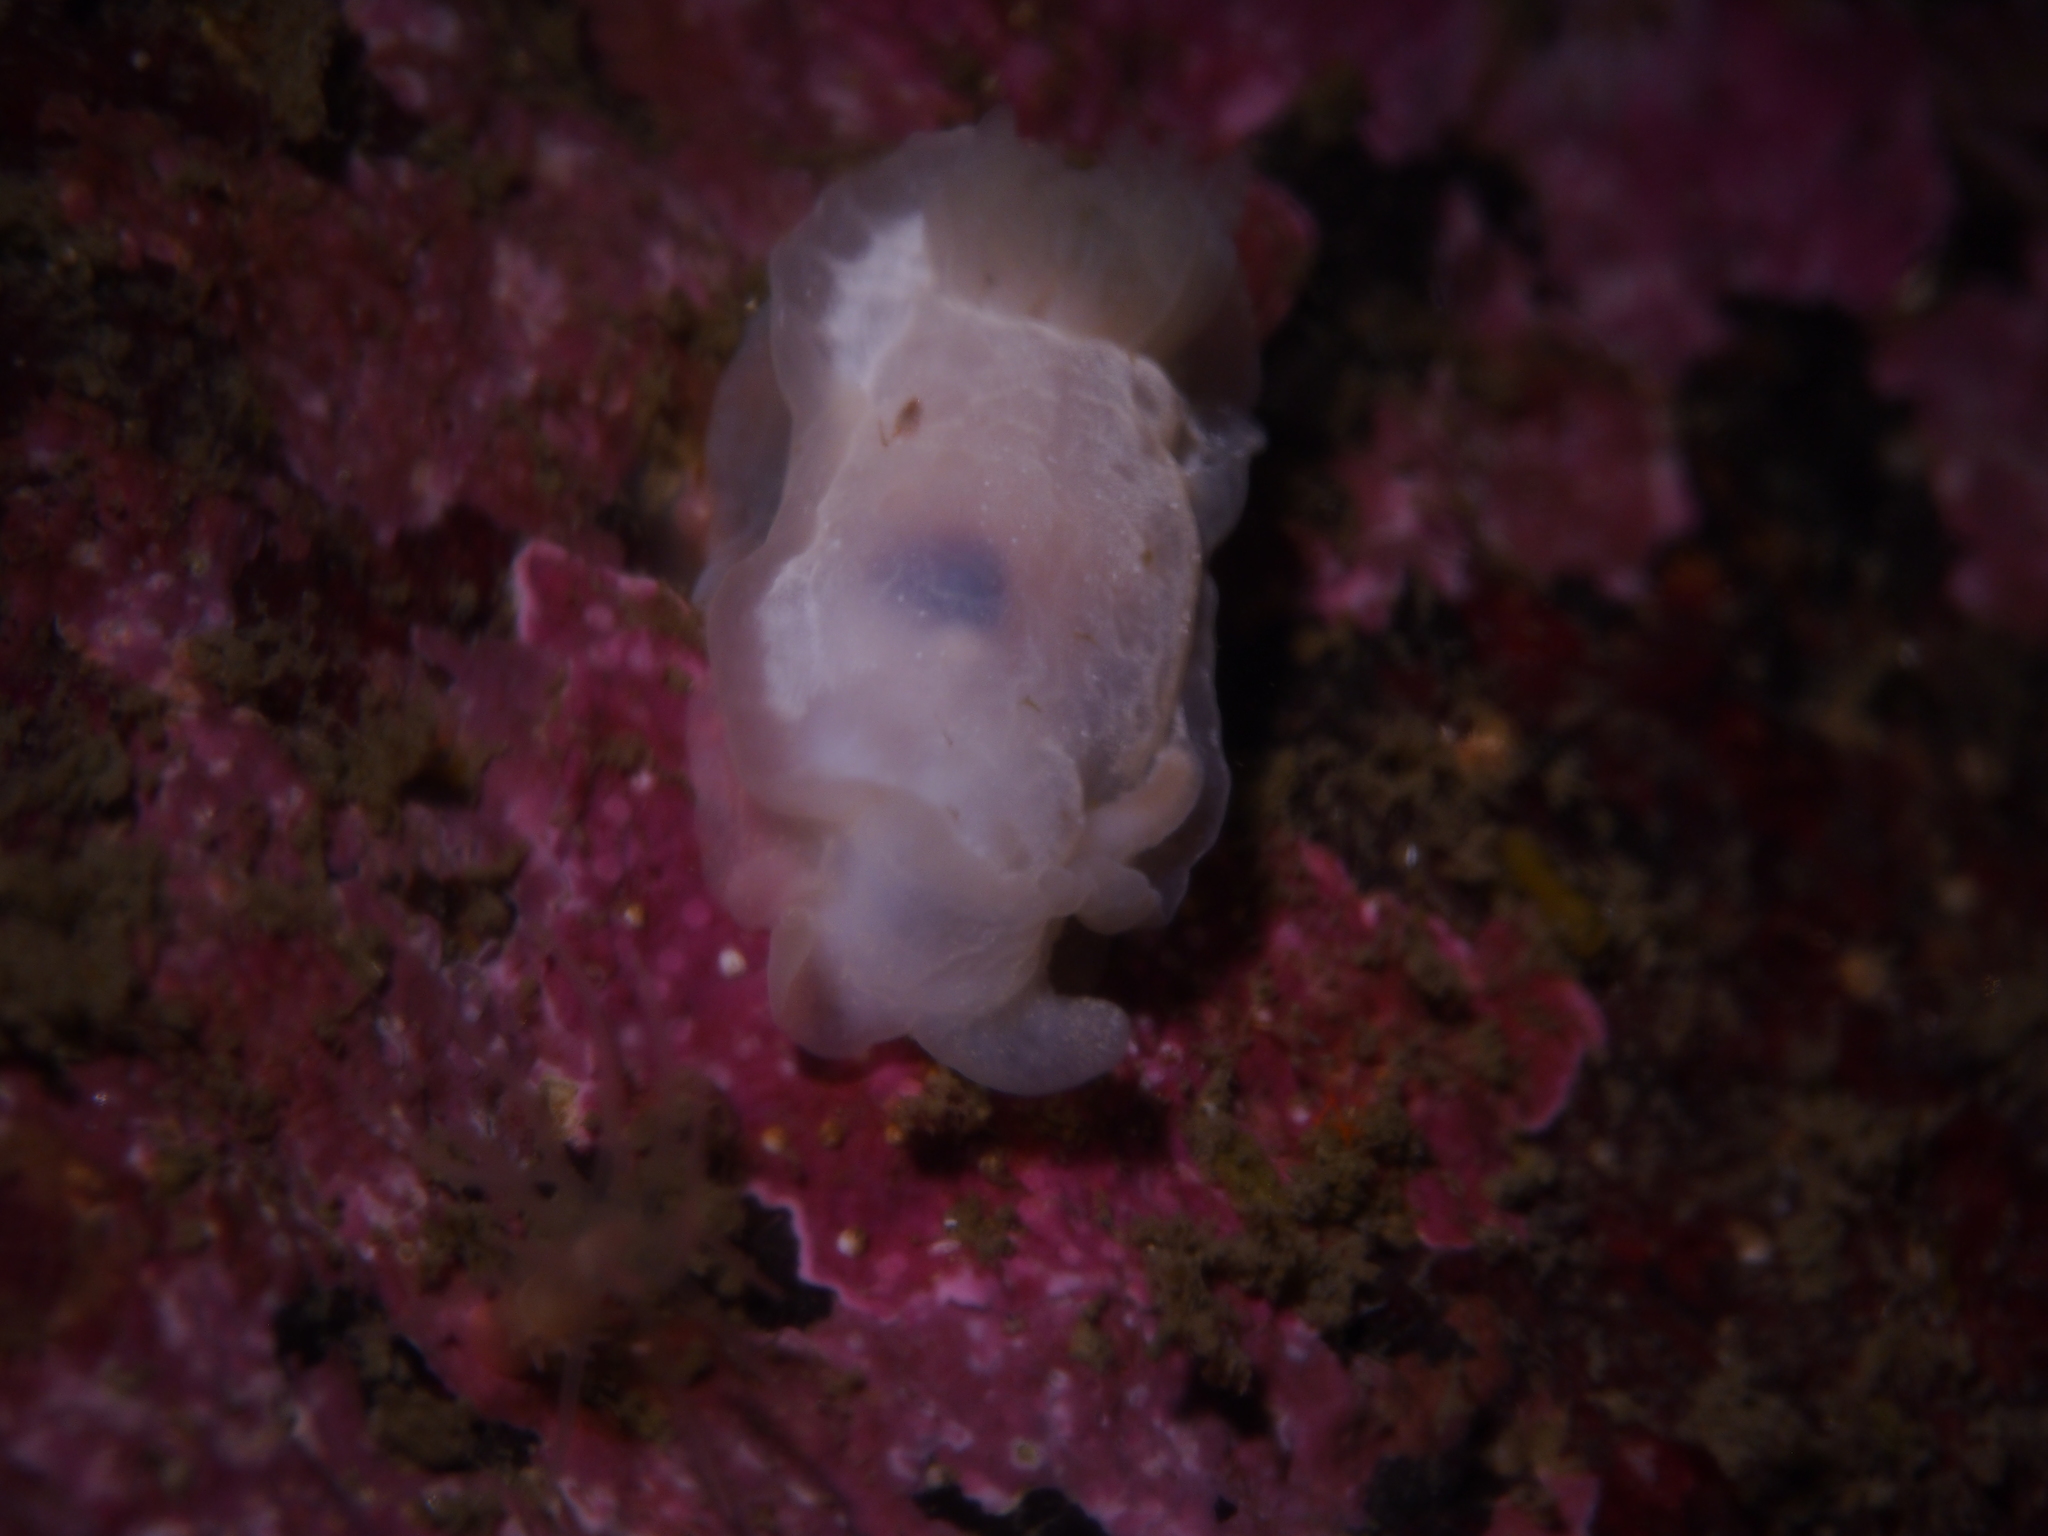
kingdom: Animalia
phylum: Mollusca
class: Gastropoda
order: Nudibranchia
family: Goniodorididae
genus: Okenia
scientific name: Okenia
